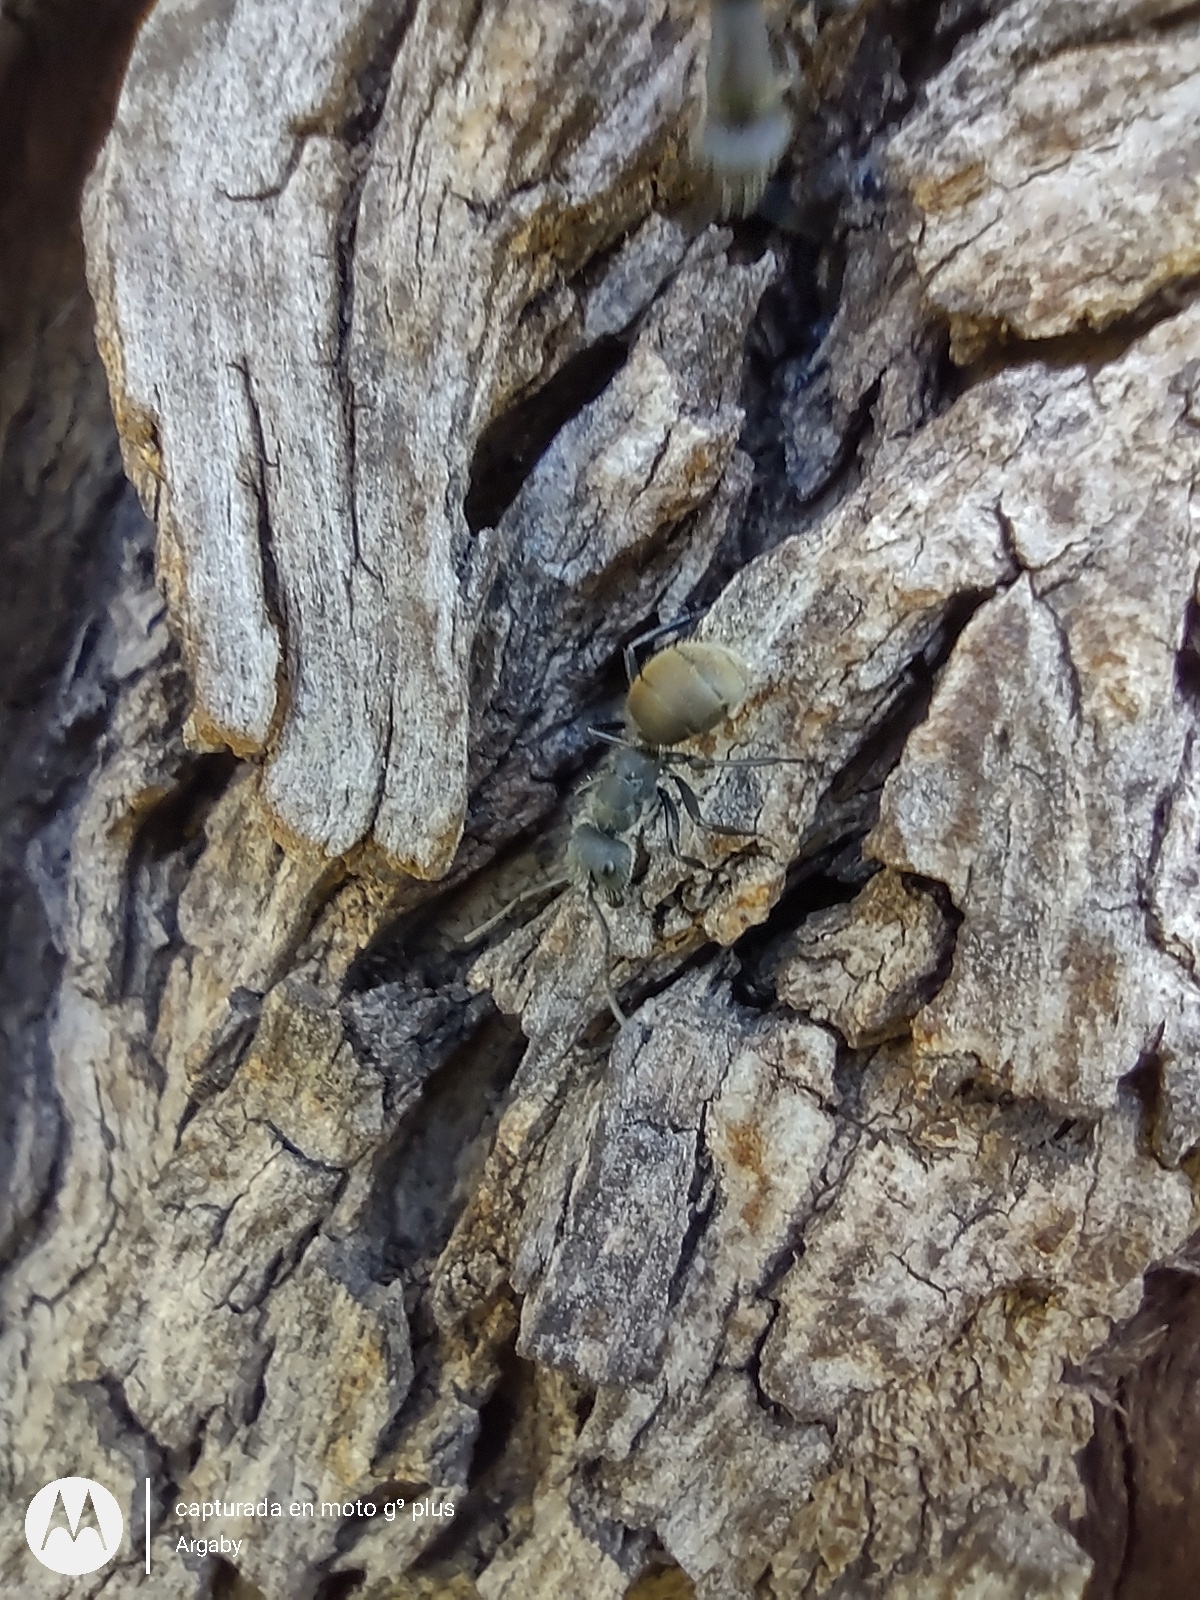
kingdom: Animalia
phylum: Arthropoda
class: Insecta
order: Hymenoptera
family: Formicidae
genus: Camponotus
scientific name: Camponotus mus
